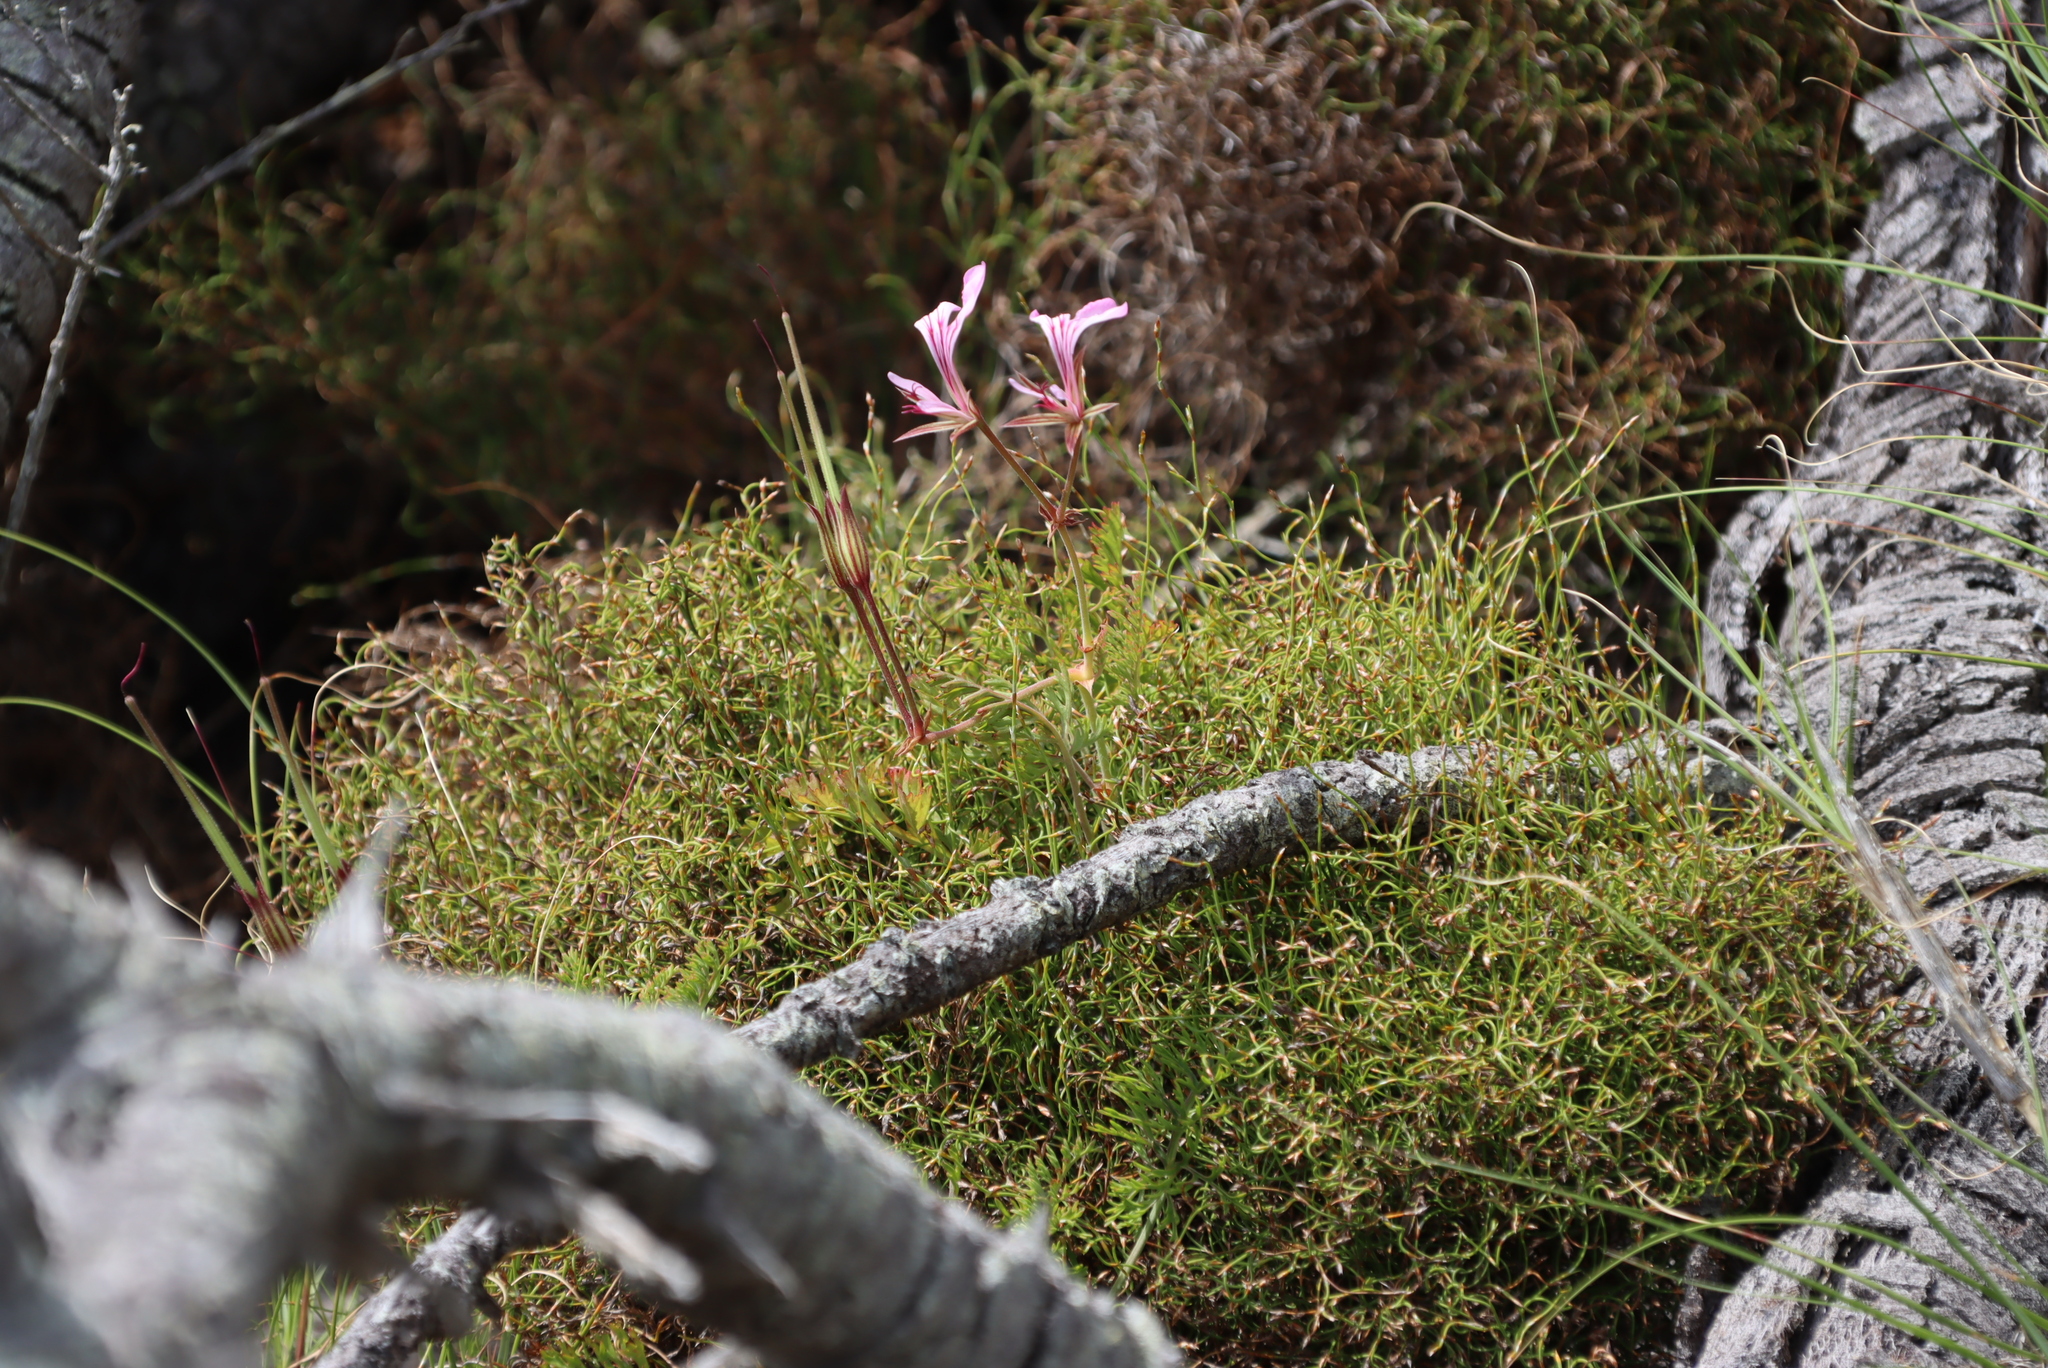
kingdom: Plantae
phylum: Tracheophyta
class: Magnoliopsida
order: Geraniales
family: Geraniaceae
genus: Pelargonium
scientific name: Pelargonium longicaule
